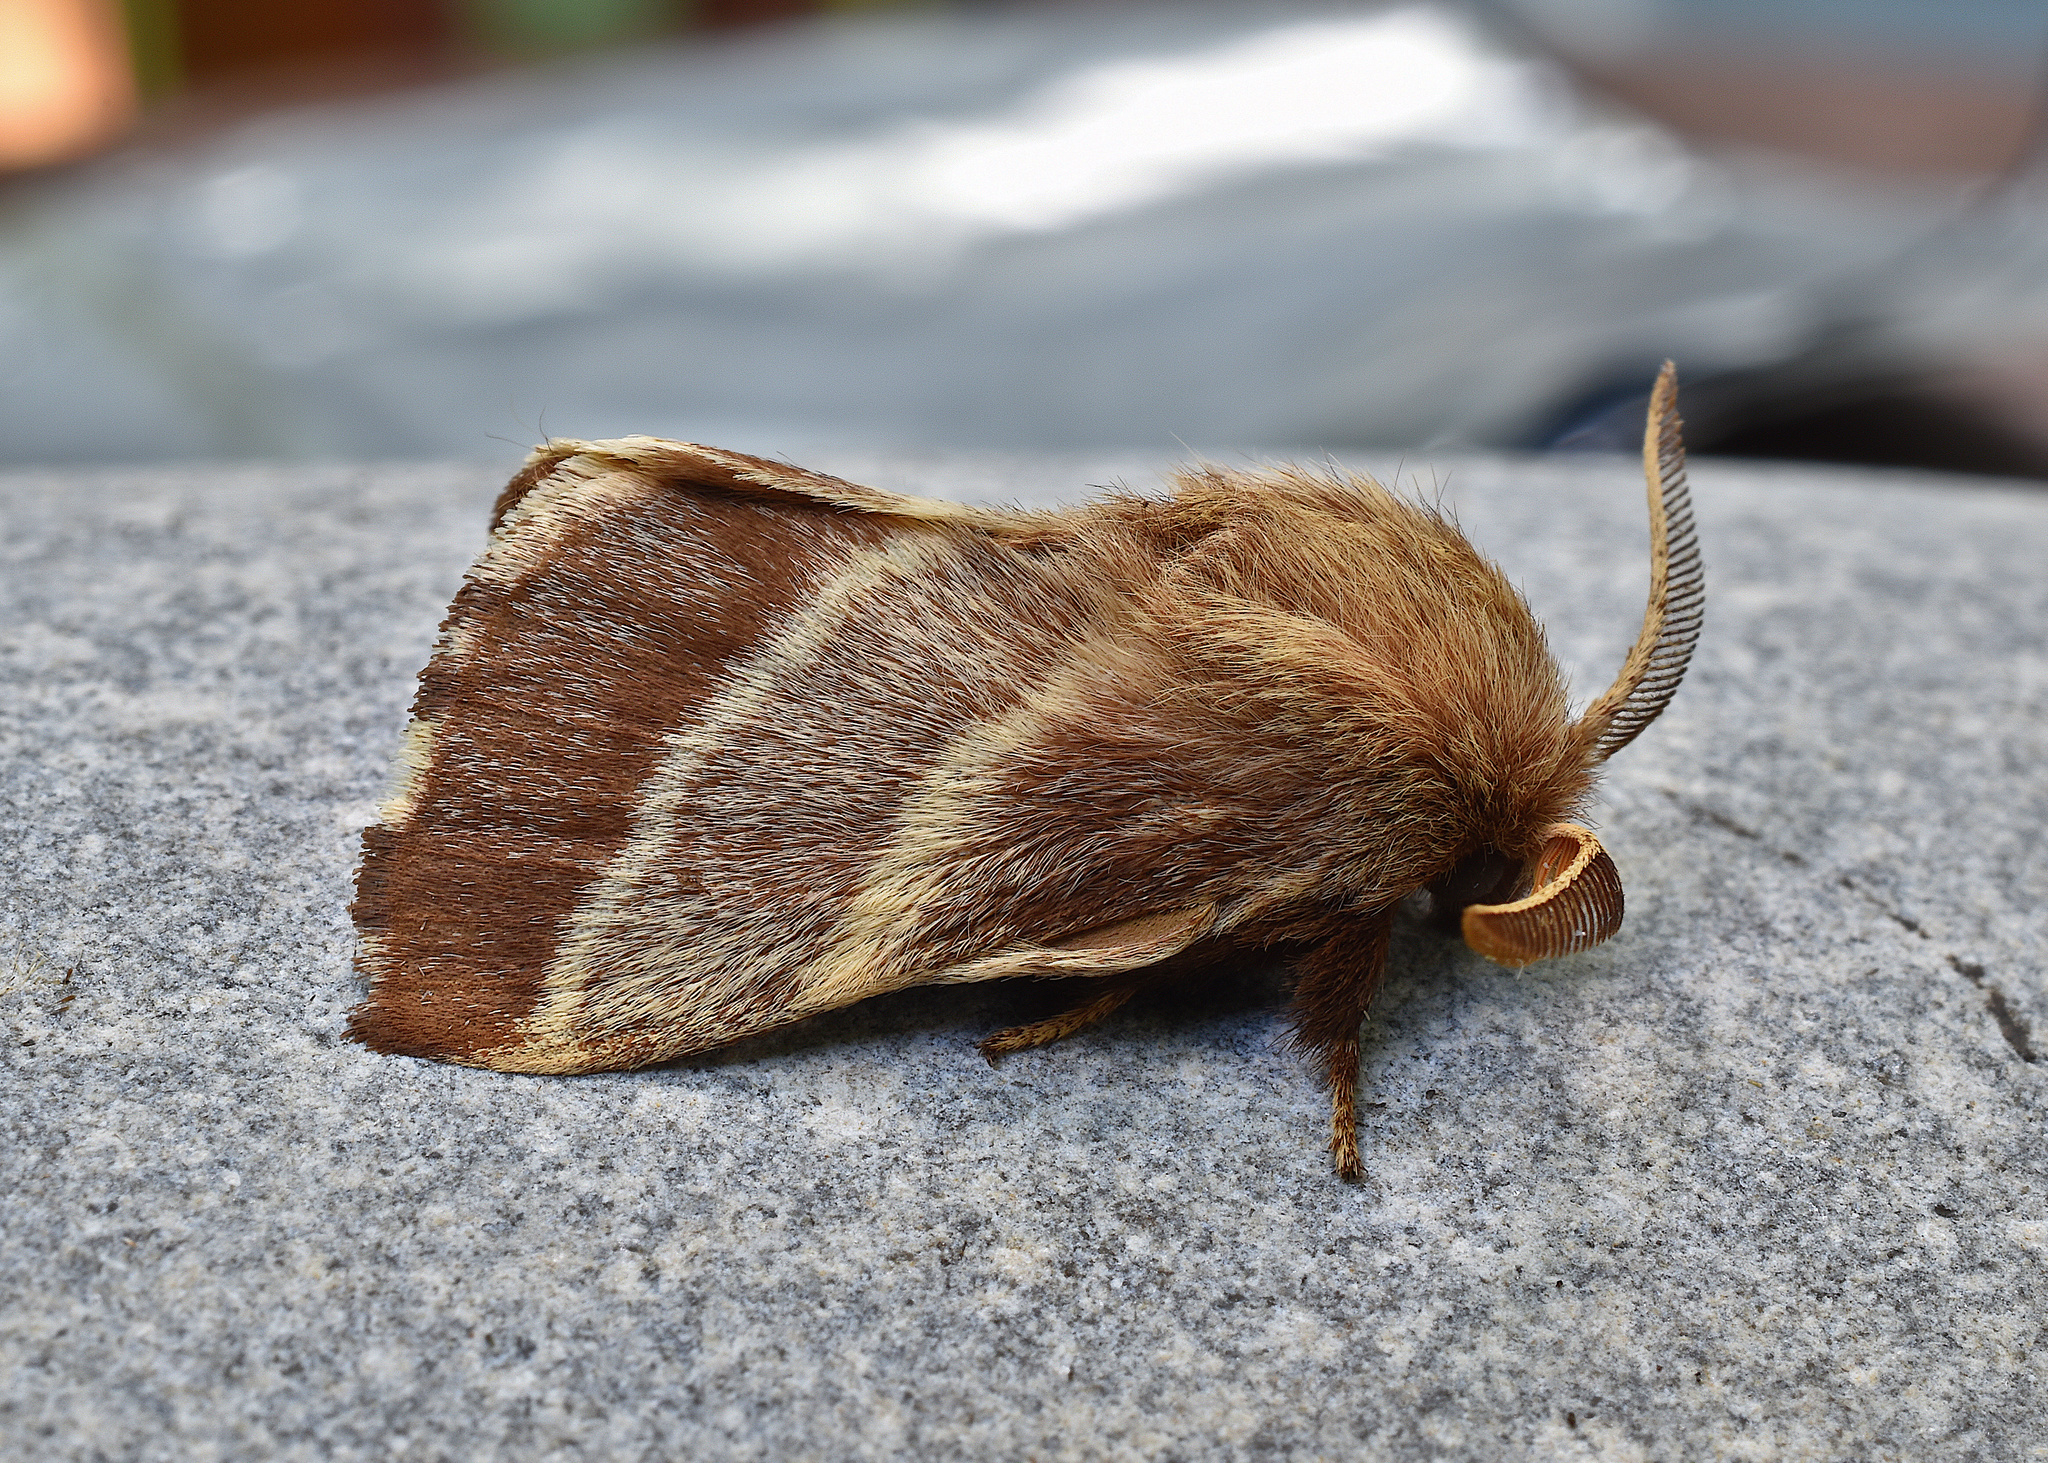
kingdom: Animalia
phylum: Arthropoda
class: Insecta
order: Lepidoptera
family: Lasiocampidae
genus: Malacosoma
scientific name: Malacosoma americana
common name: Eastern tent caterpillar moth
